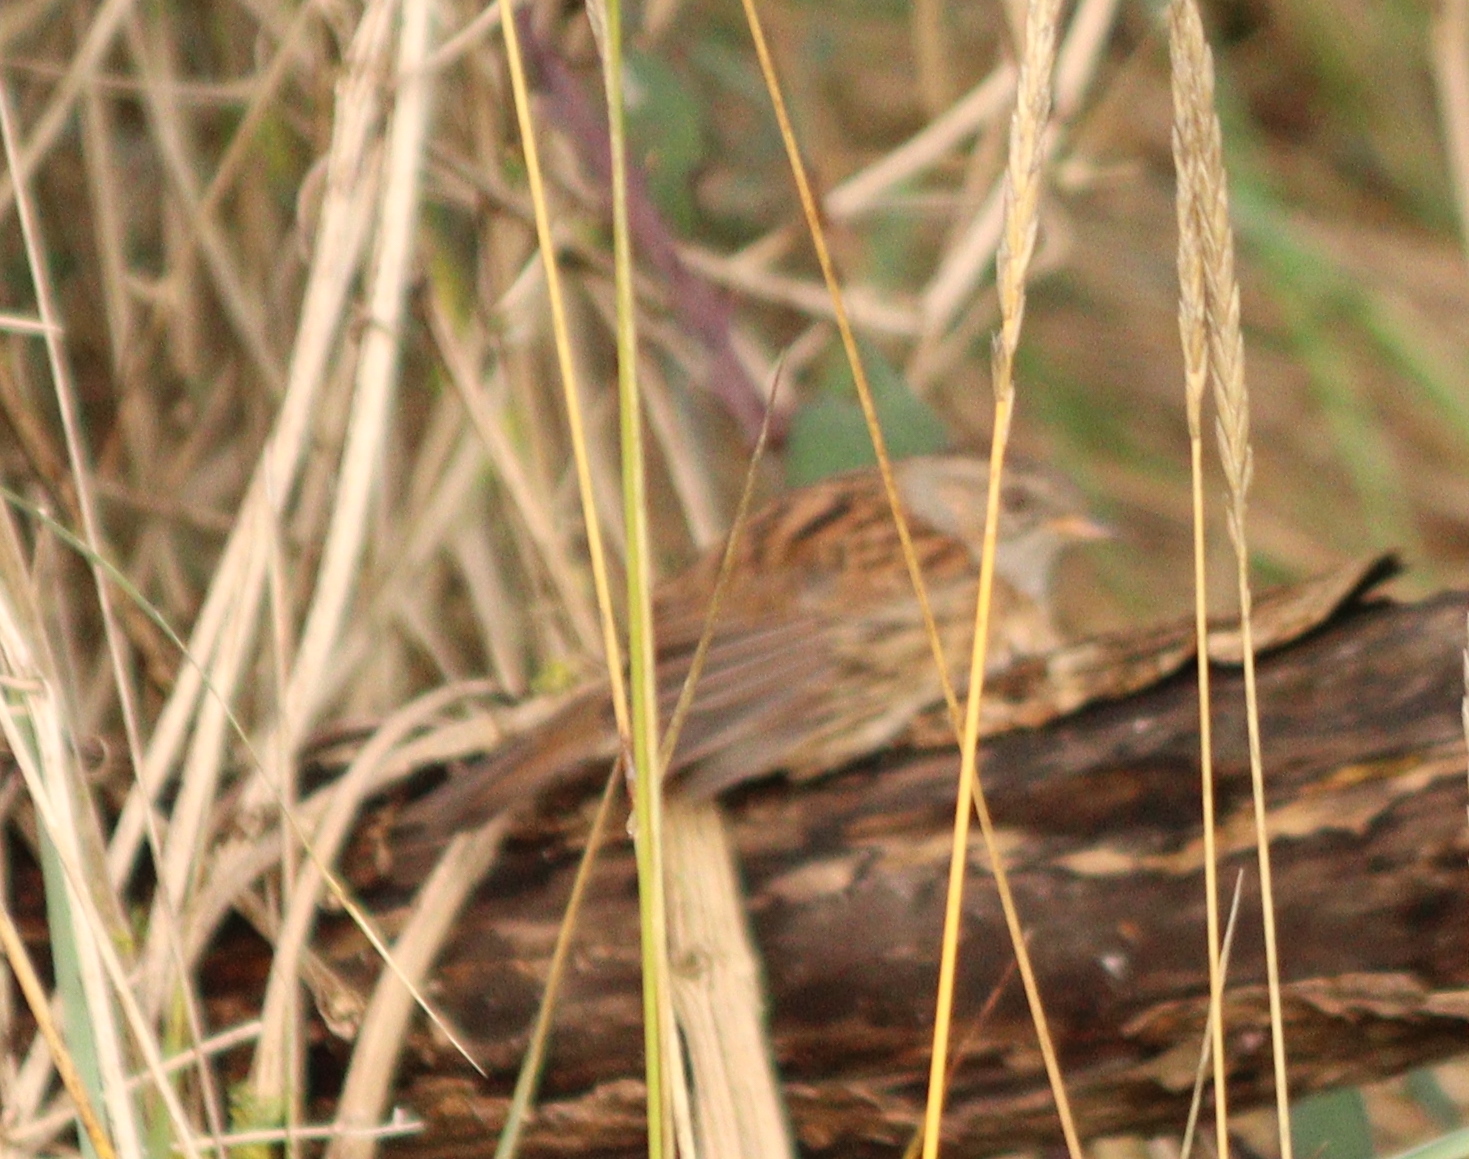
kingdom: Animalia
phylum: Chordata
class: Aves
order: Passeriformes
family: Prunellidae
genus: Prunella
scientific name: Prunella modularis
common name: Dunnock
